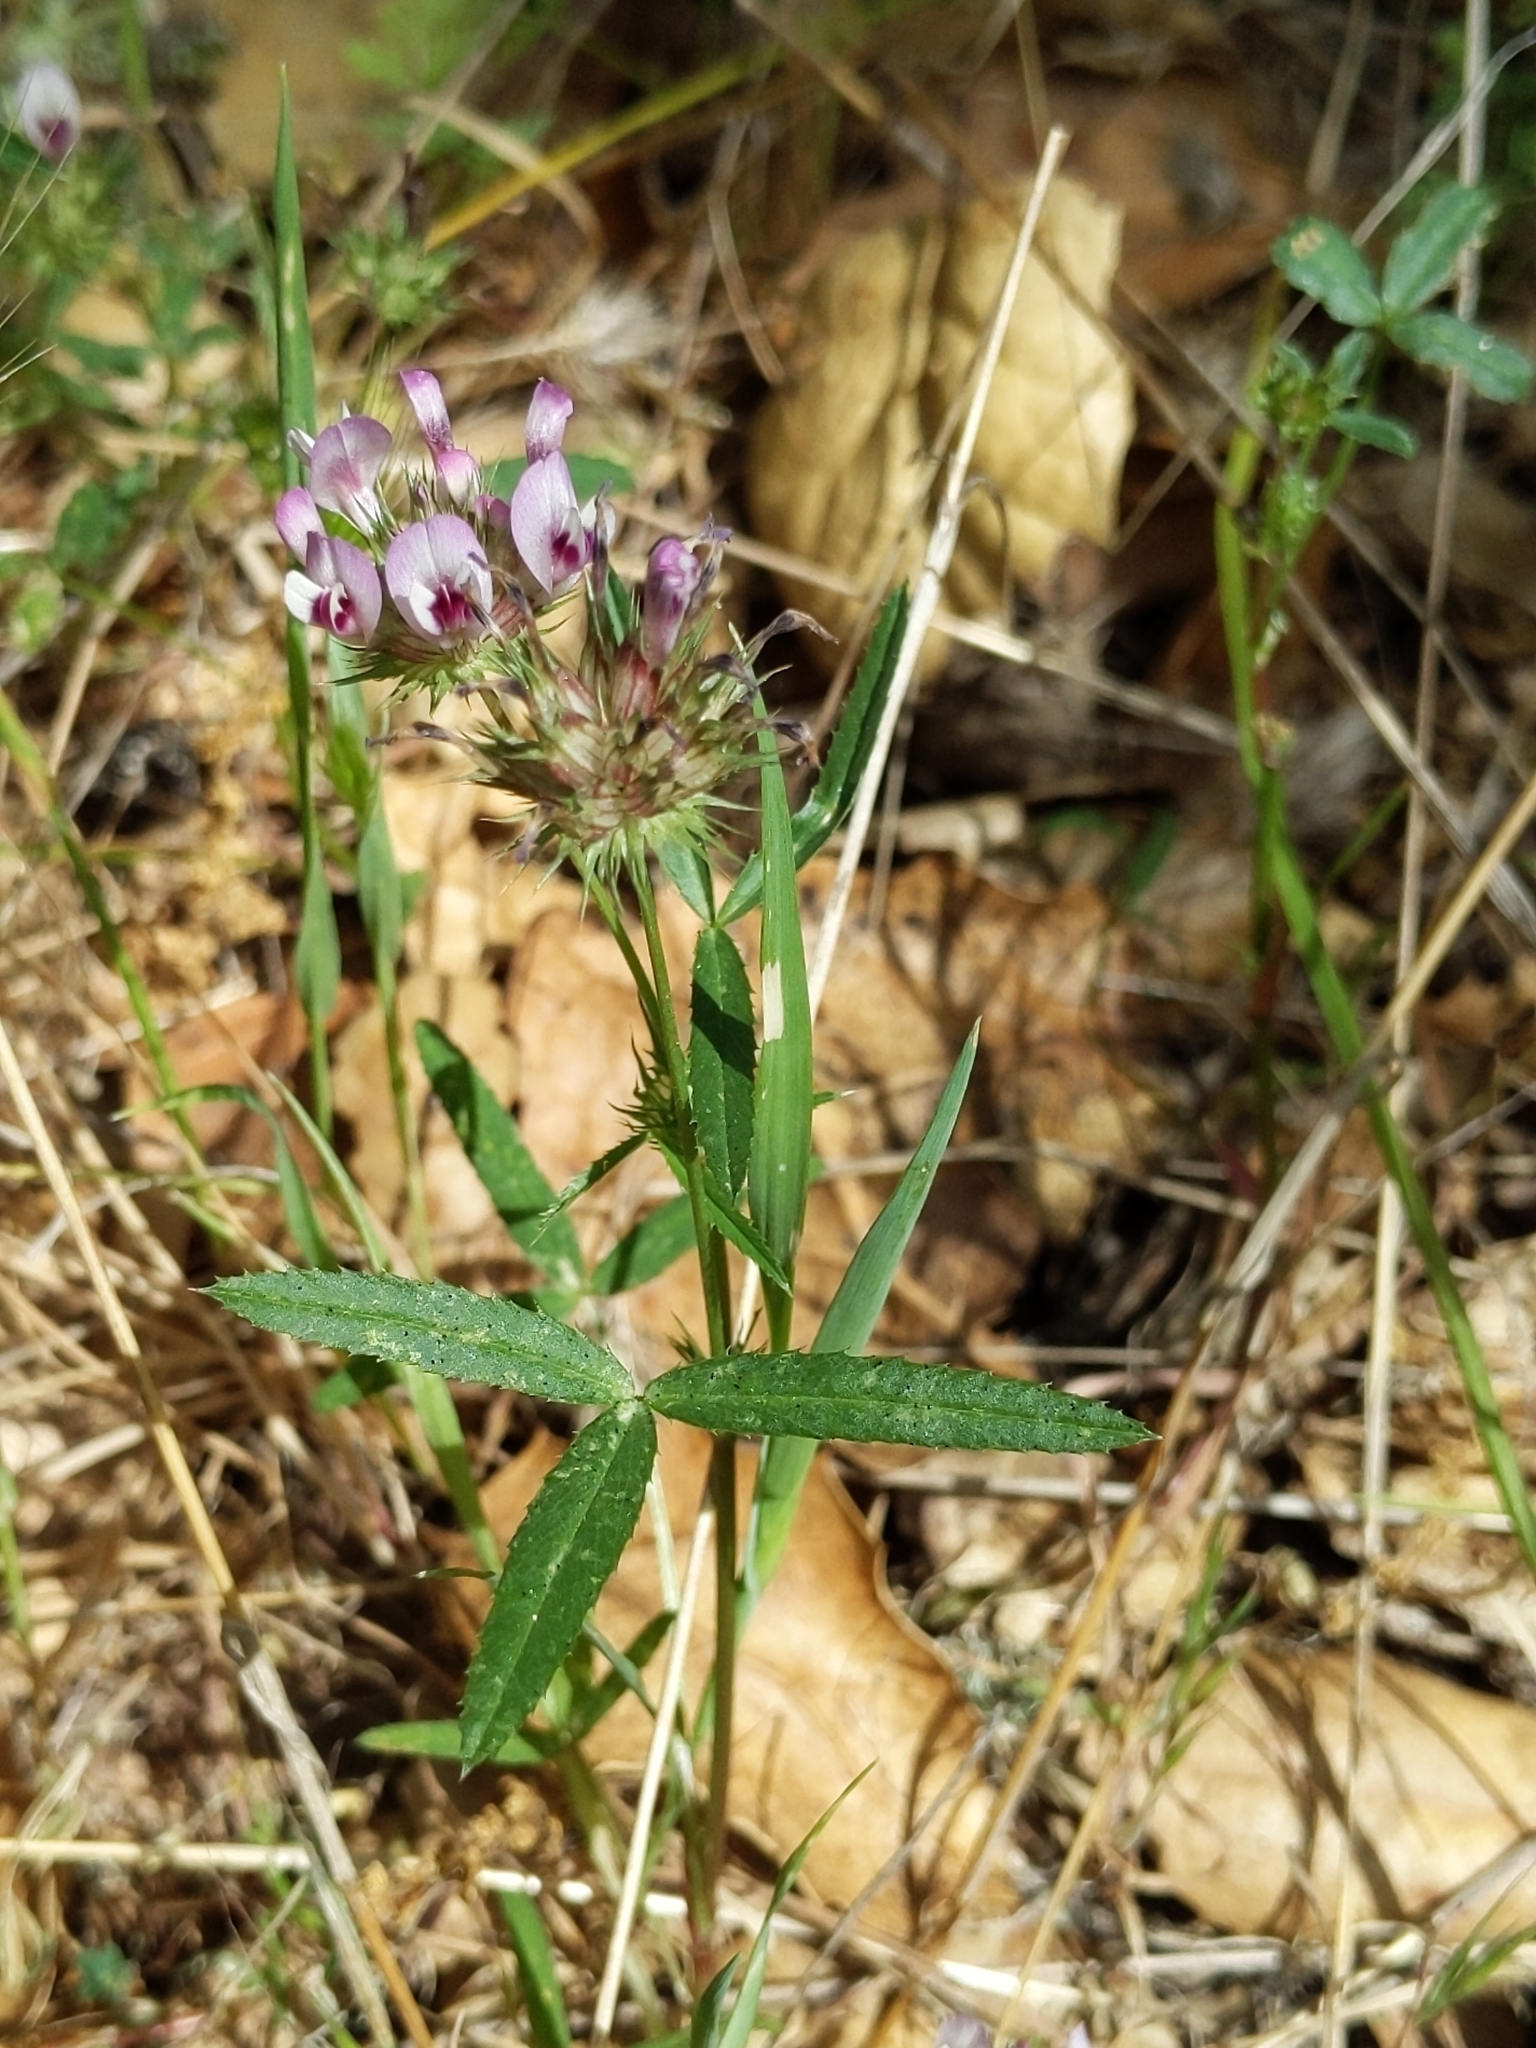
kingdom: Plantae
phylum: Tracheophyta
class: Magnoliopsida
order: Fabales
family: Fabaceae
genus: Trifolium
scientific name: Trifolium willdenovii
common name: Tomcat clover
